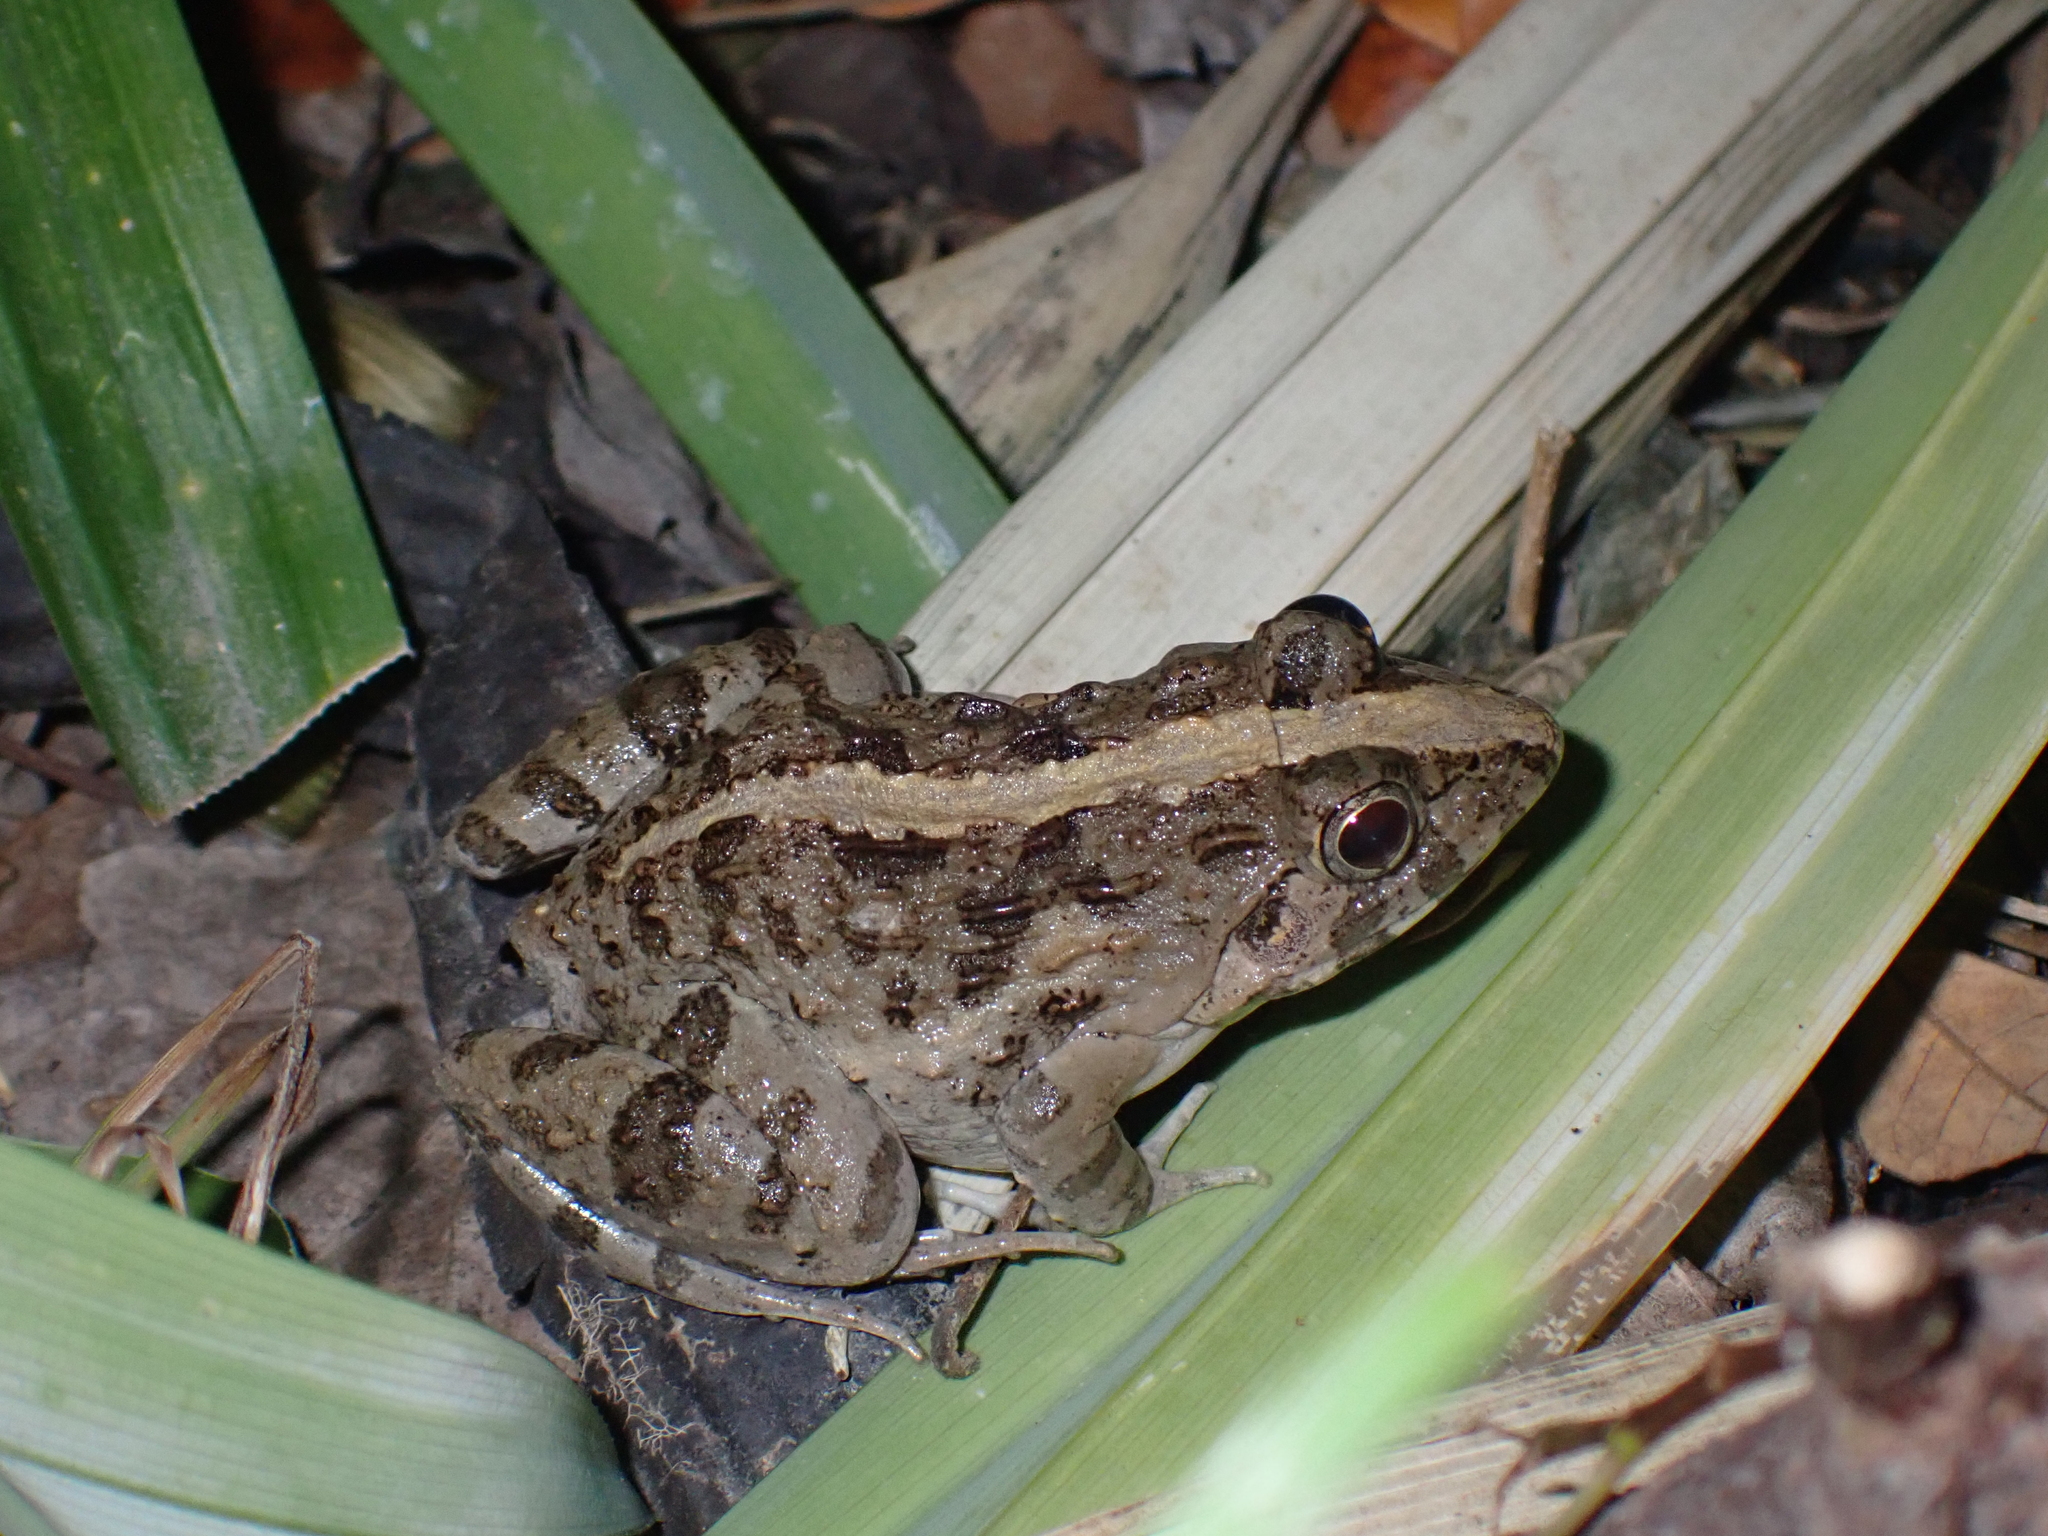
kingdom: Animalia
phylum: Chordata
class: Amphibia
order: Anura
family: Dicroglossidae
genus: Fejervarya
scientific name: Fejervarya limnocharis
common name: Asian grass frog/common pond frog/field frog/grass frog/indian rice frog
